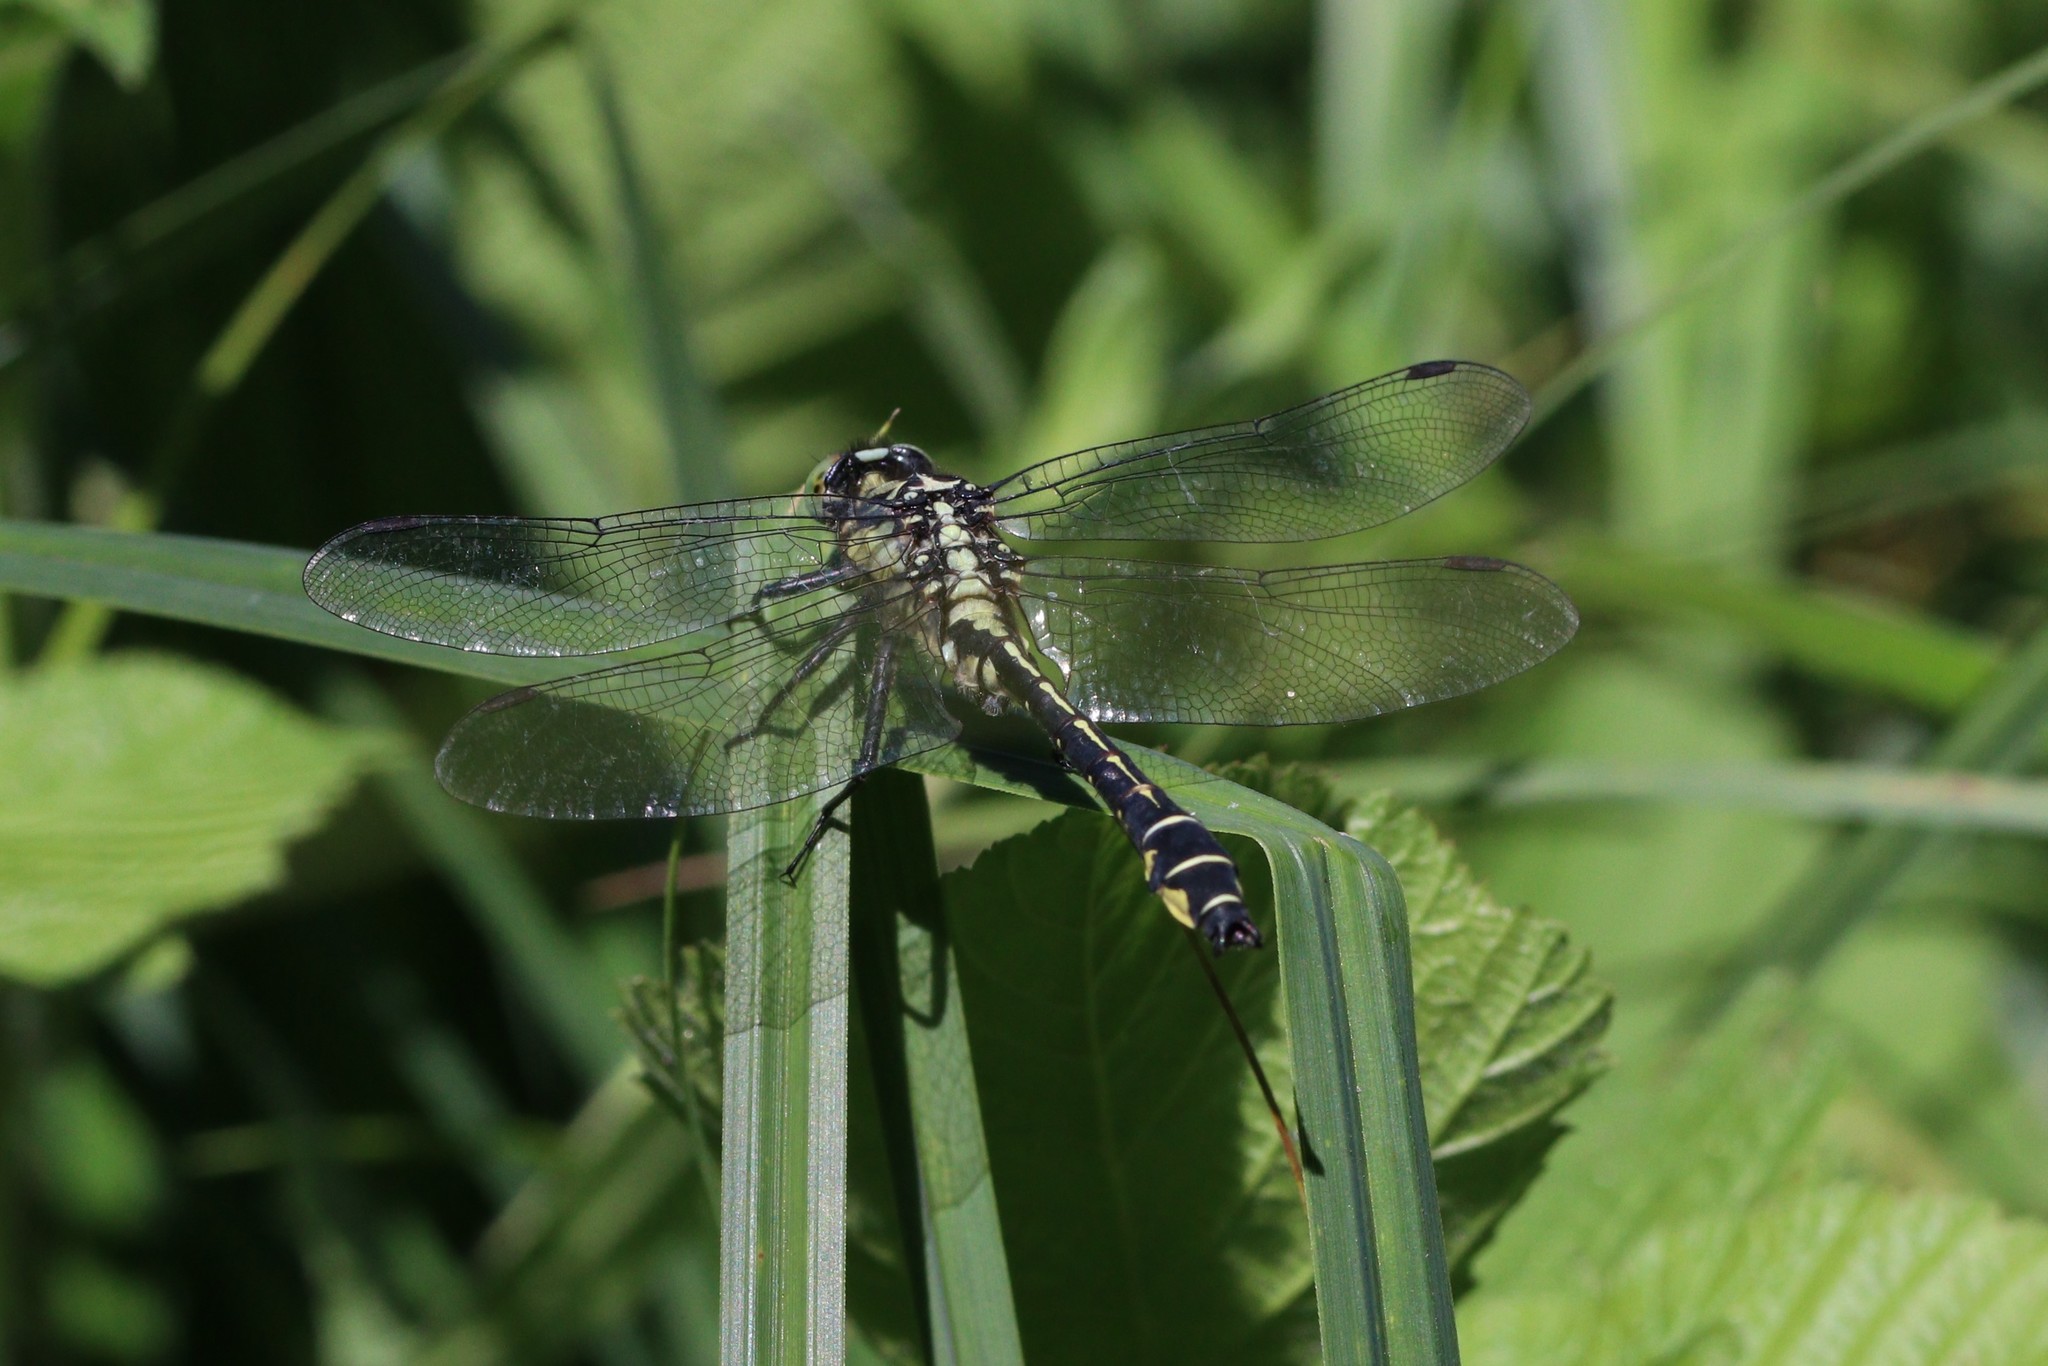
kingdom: Animalia
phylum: Arthropoda
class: Insecta
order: Odonata
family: Gomphidae
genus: Gomphus
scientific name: Gomphus vulgatissimus
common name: Club-tailed dragonfly
